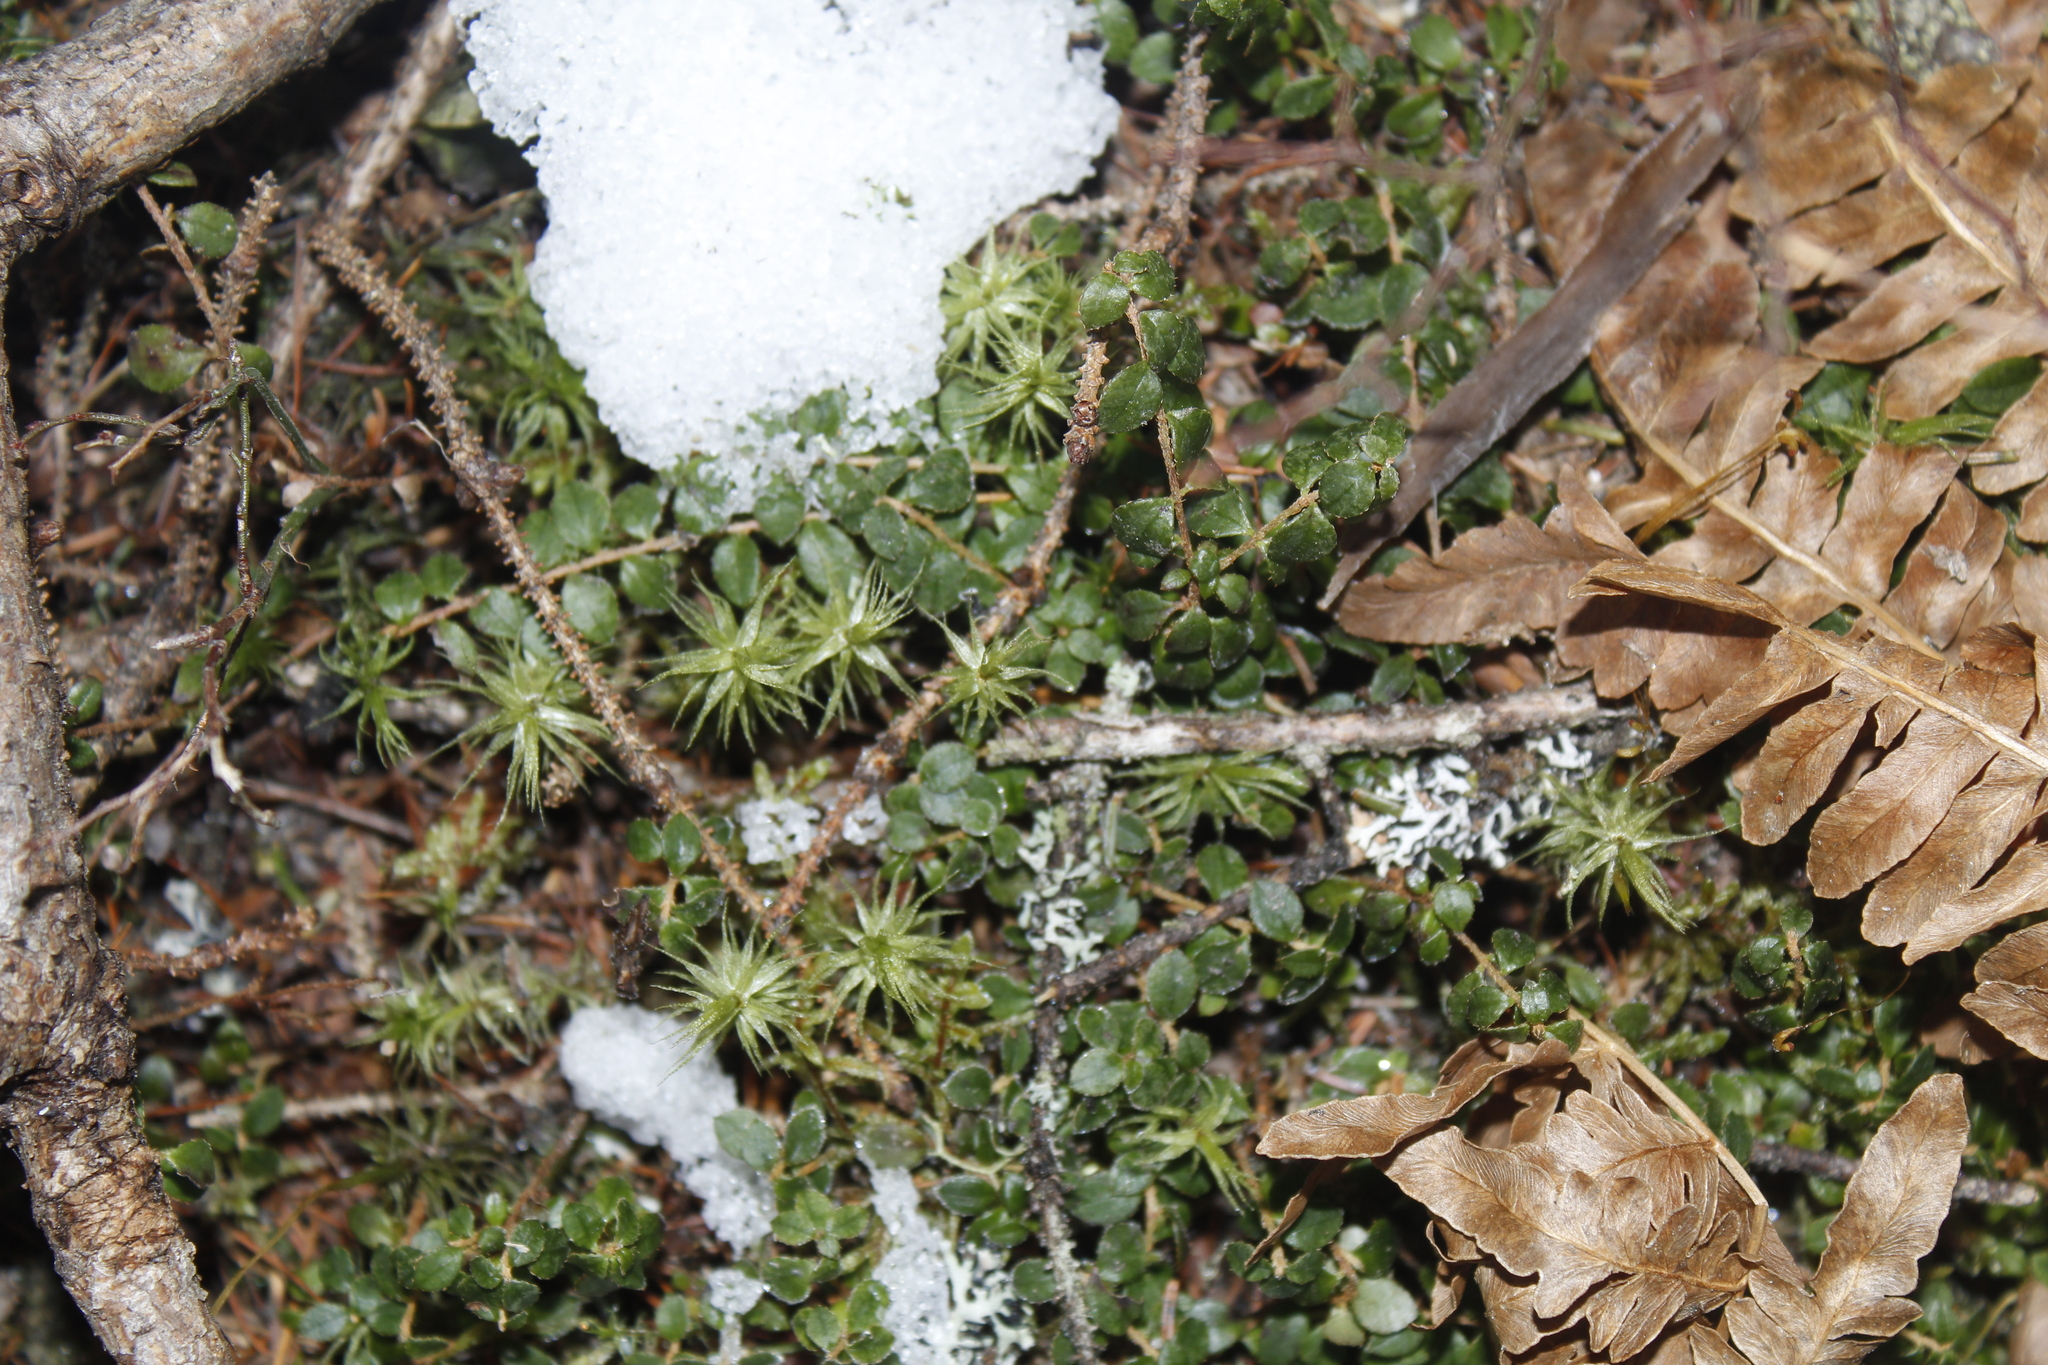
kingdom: Plantae
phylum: Tracheophyta
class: Magnoliopsida
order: Ericales
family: Ericaceae
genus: Gaultheria
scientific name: Gaultheria hispidula
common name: Cancer wintergreen
